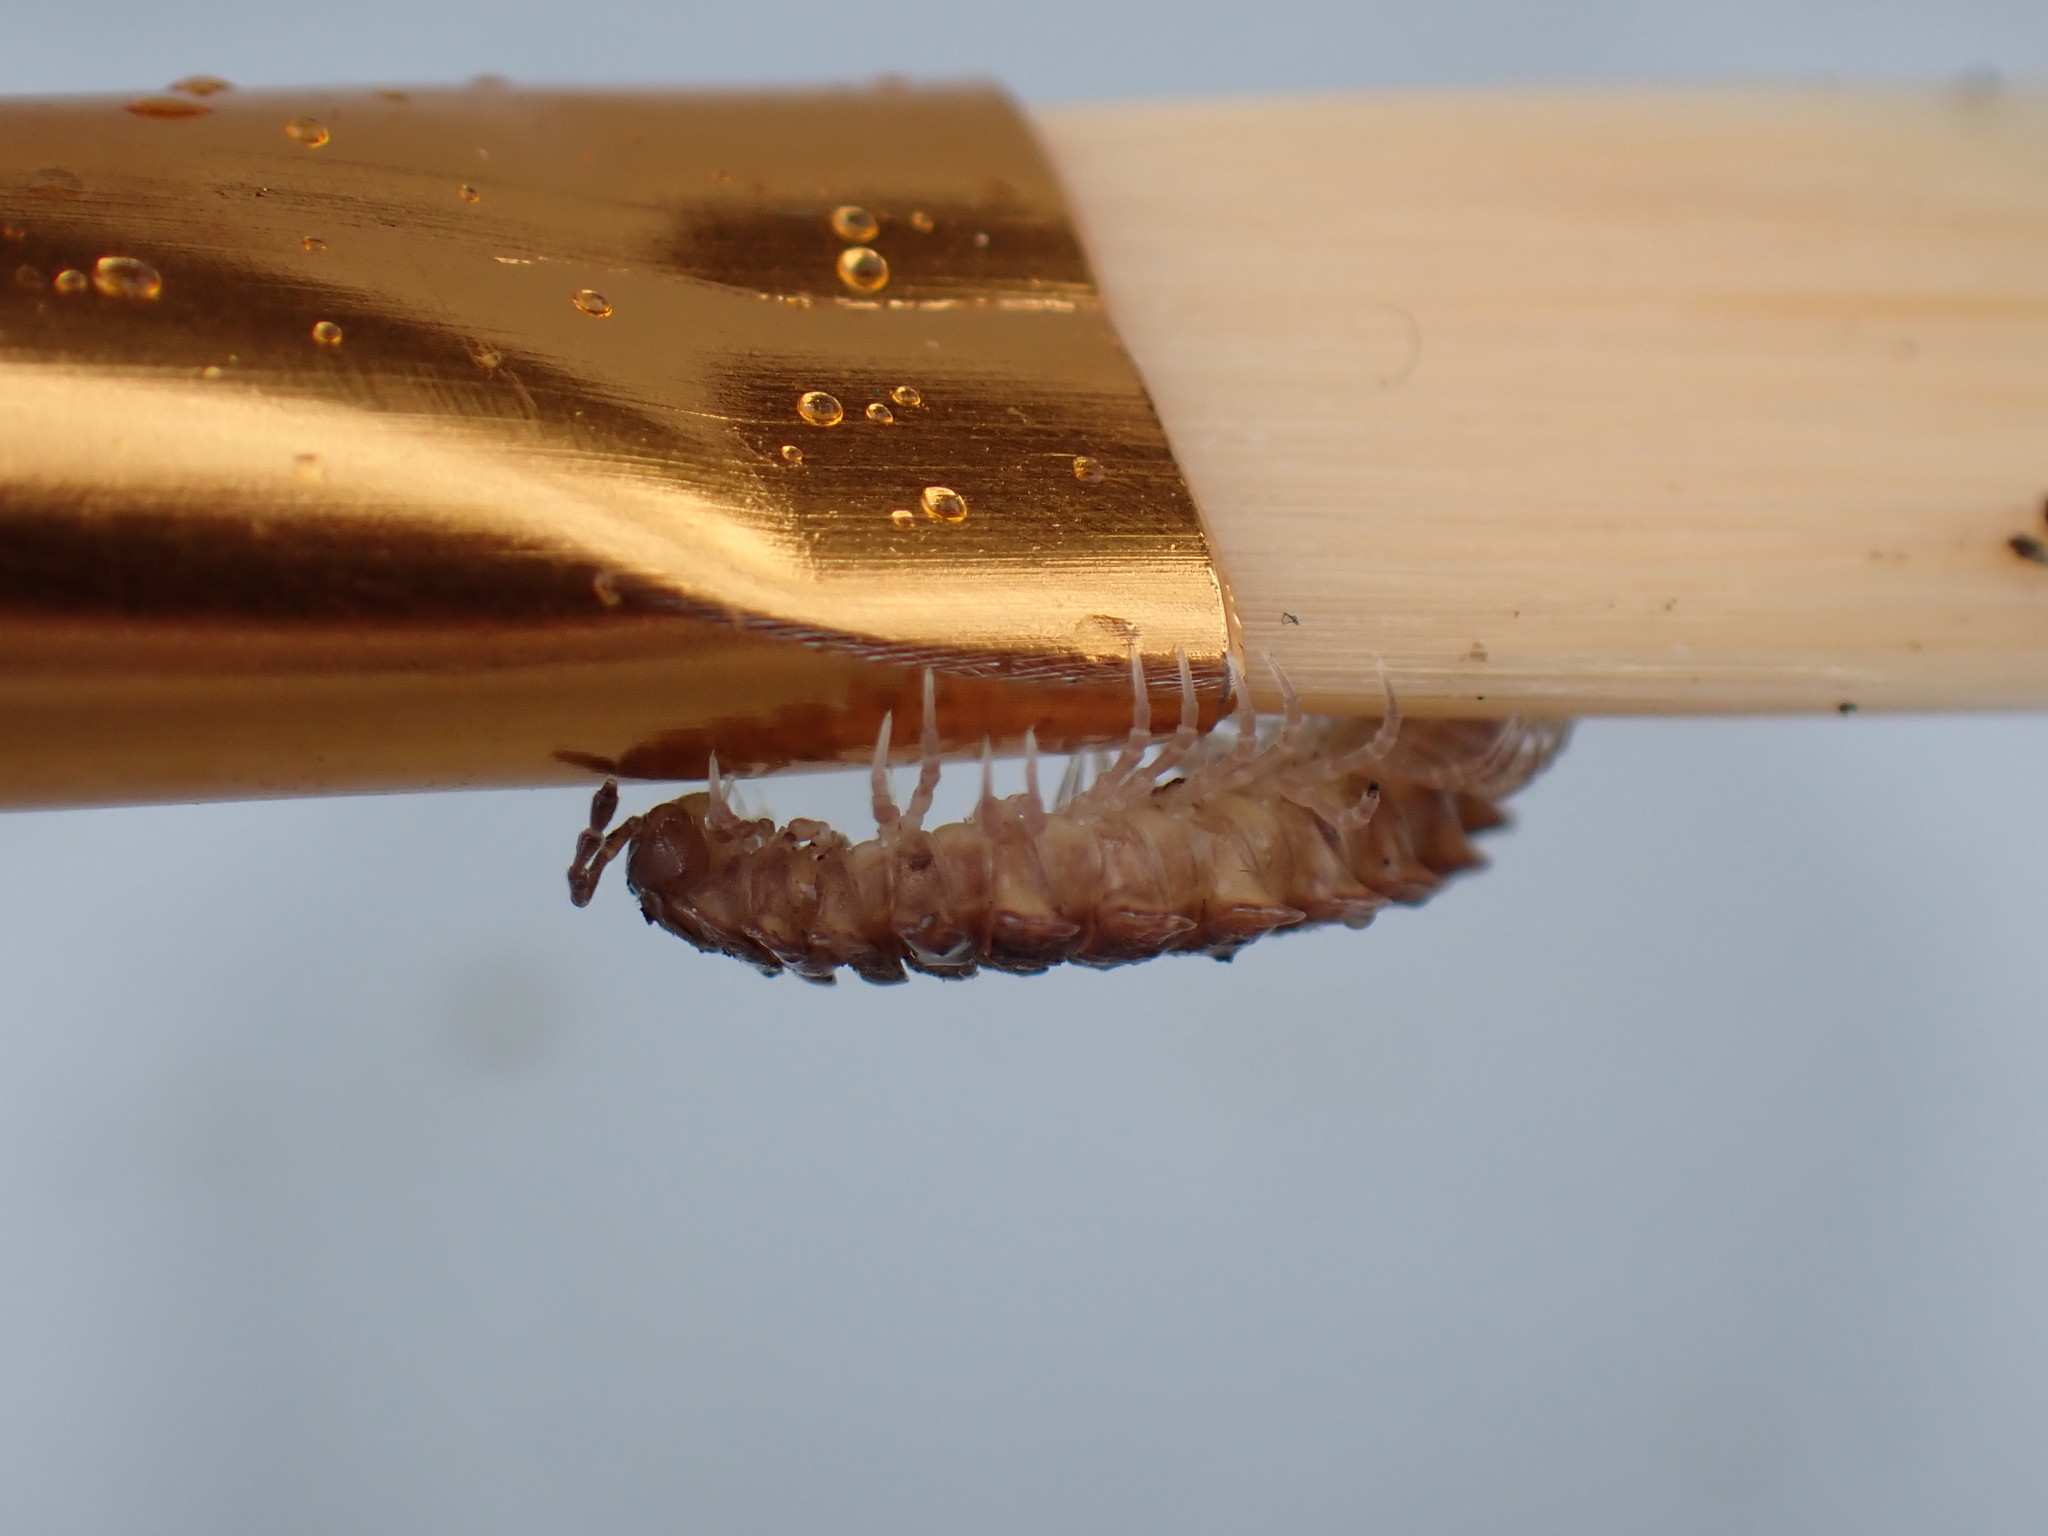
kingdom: Animalia
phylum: Arthropoda
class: Diplopoda
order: Polydesmida
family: Polydesmidae
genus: Polydesmus
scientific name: Polydesmus
